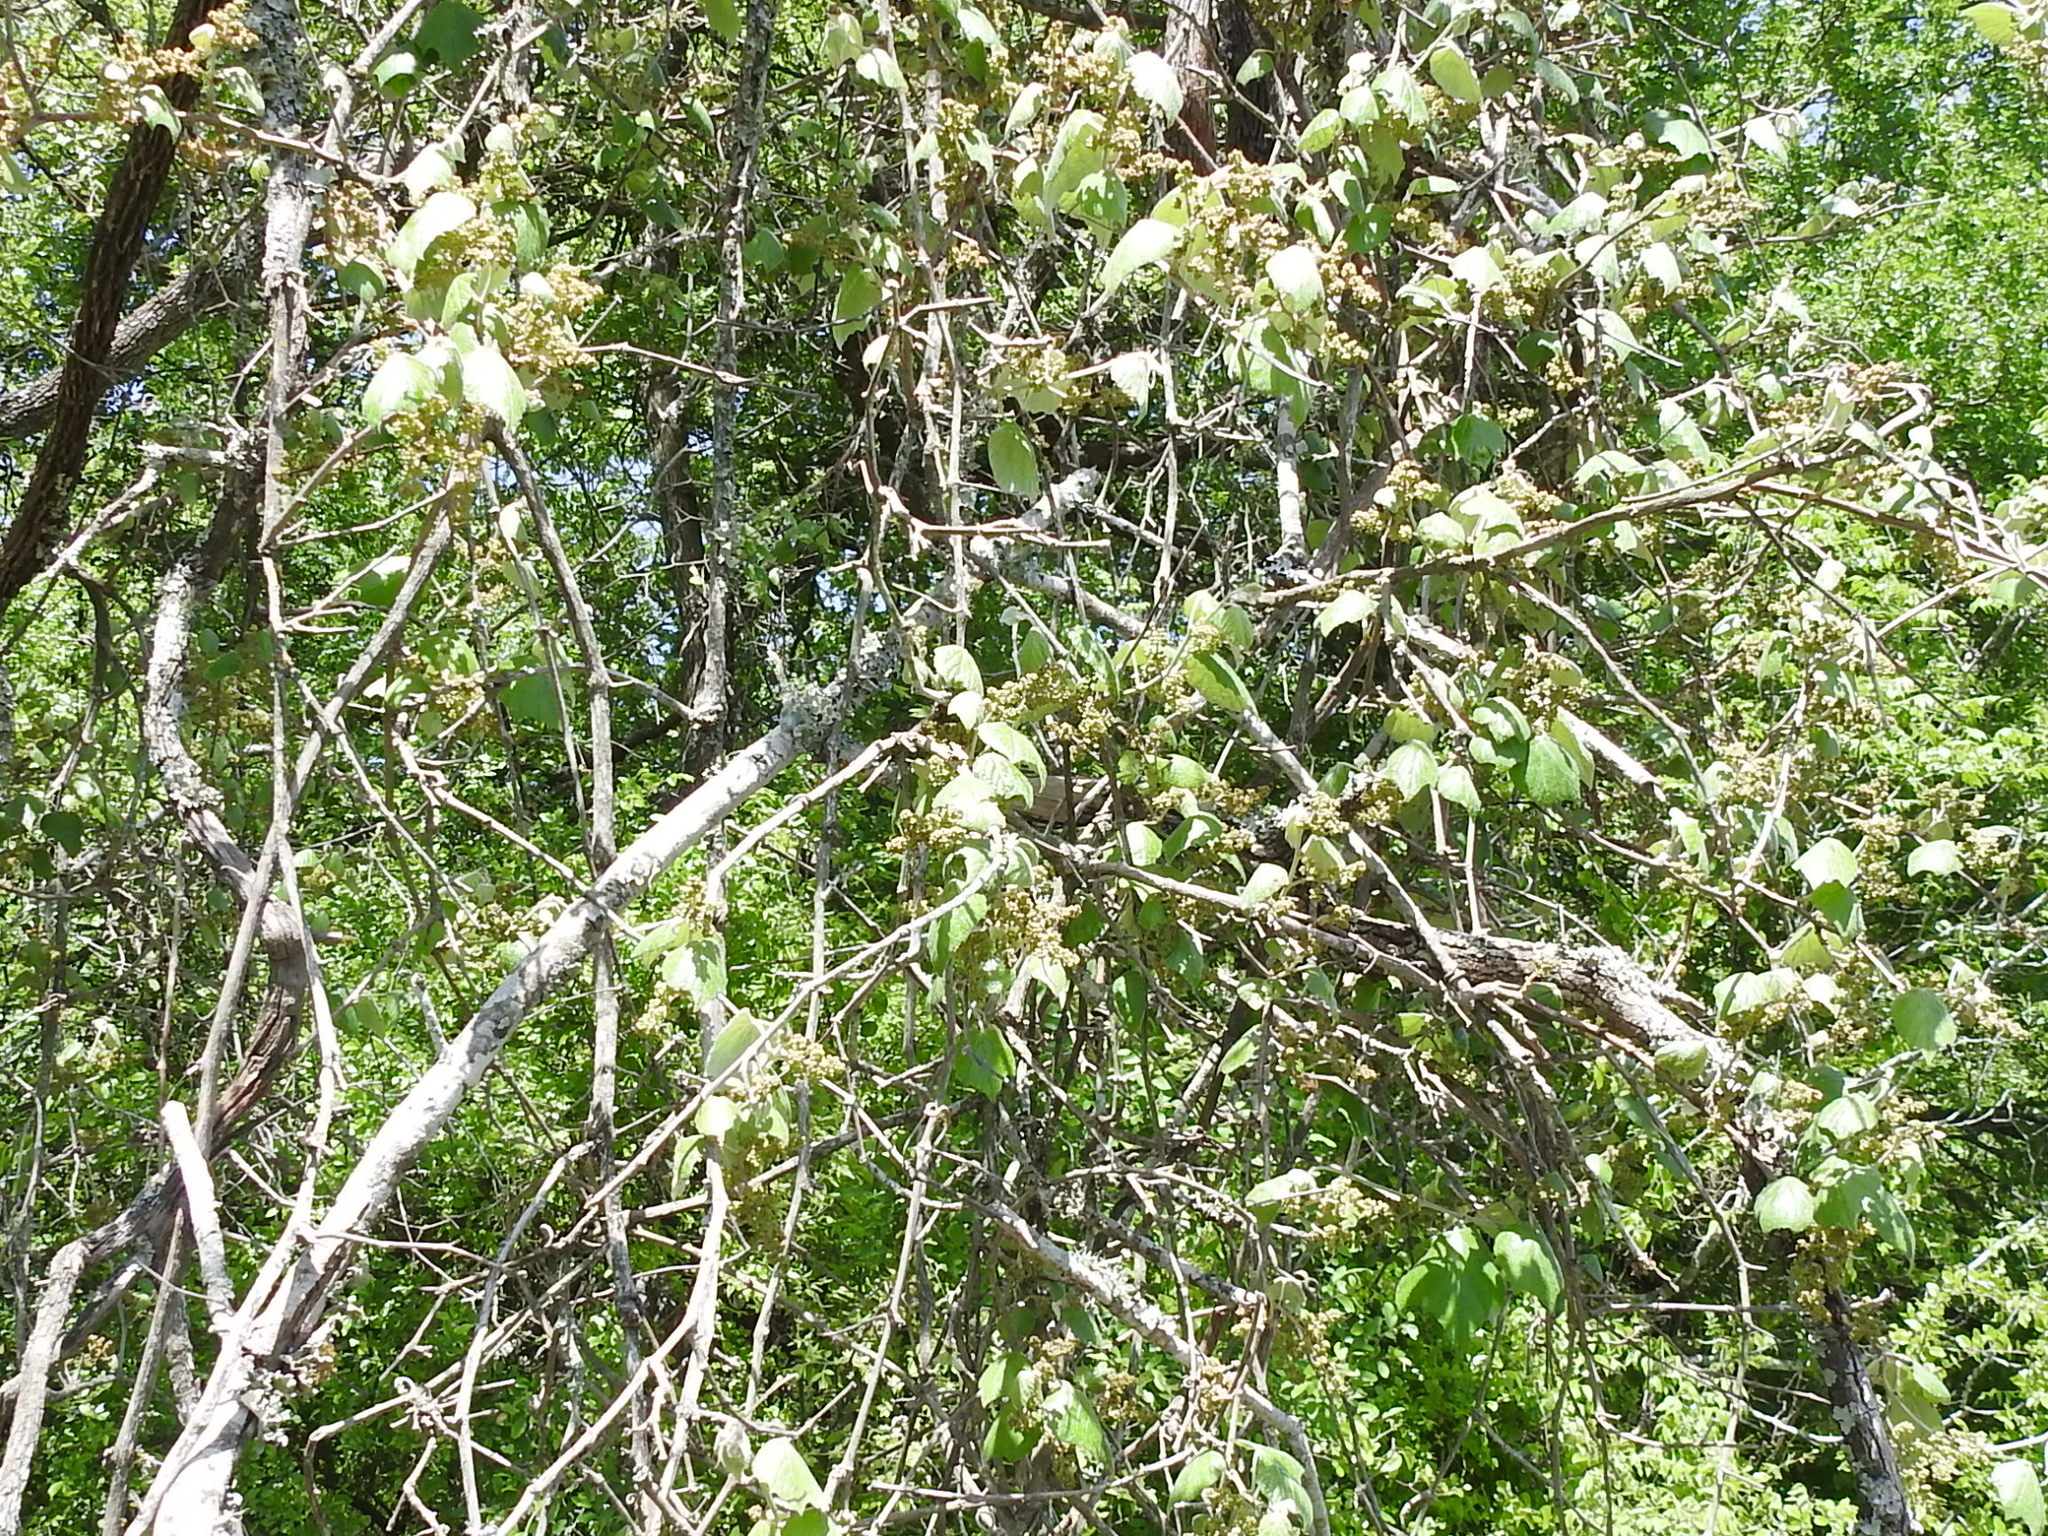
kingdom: Plantae
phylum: Tracheophyta
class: Magnoliopsida
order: Vitales
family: Vitaceae
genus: Vitis
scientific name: Vitis mustangensis
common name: Mustang grape
